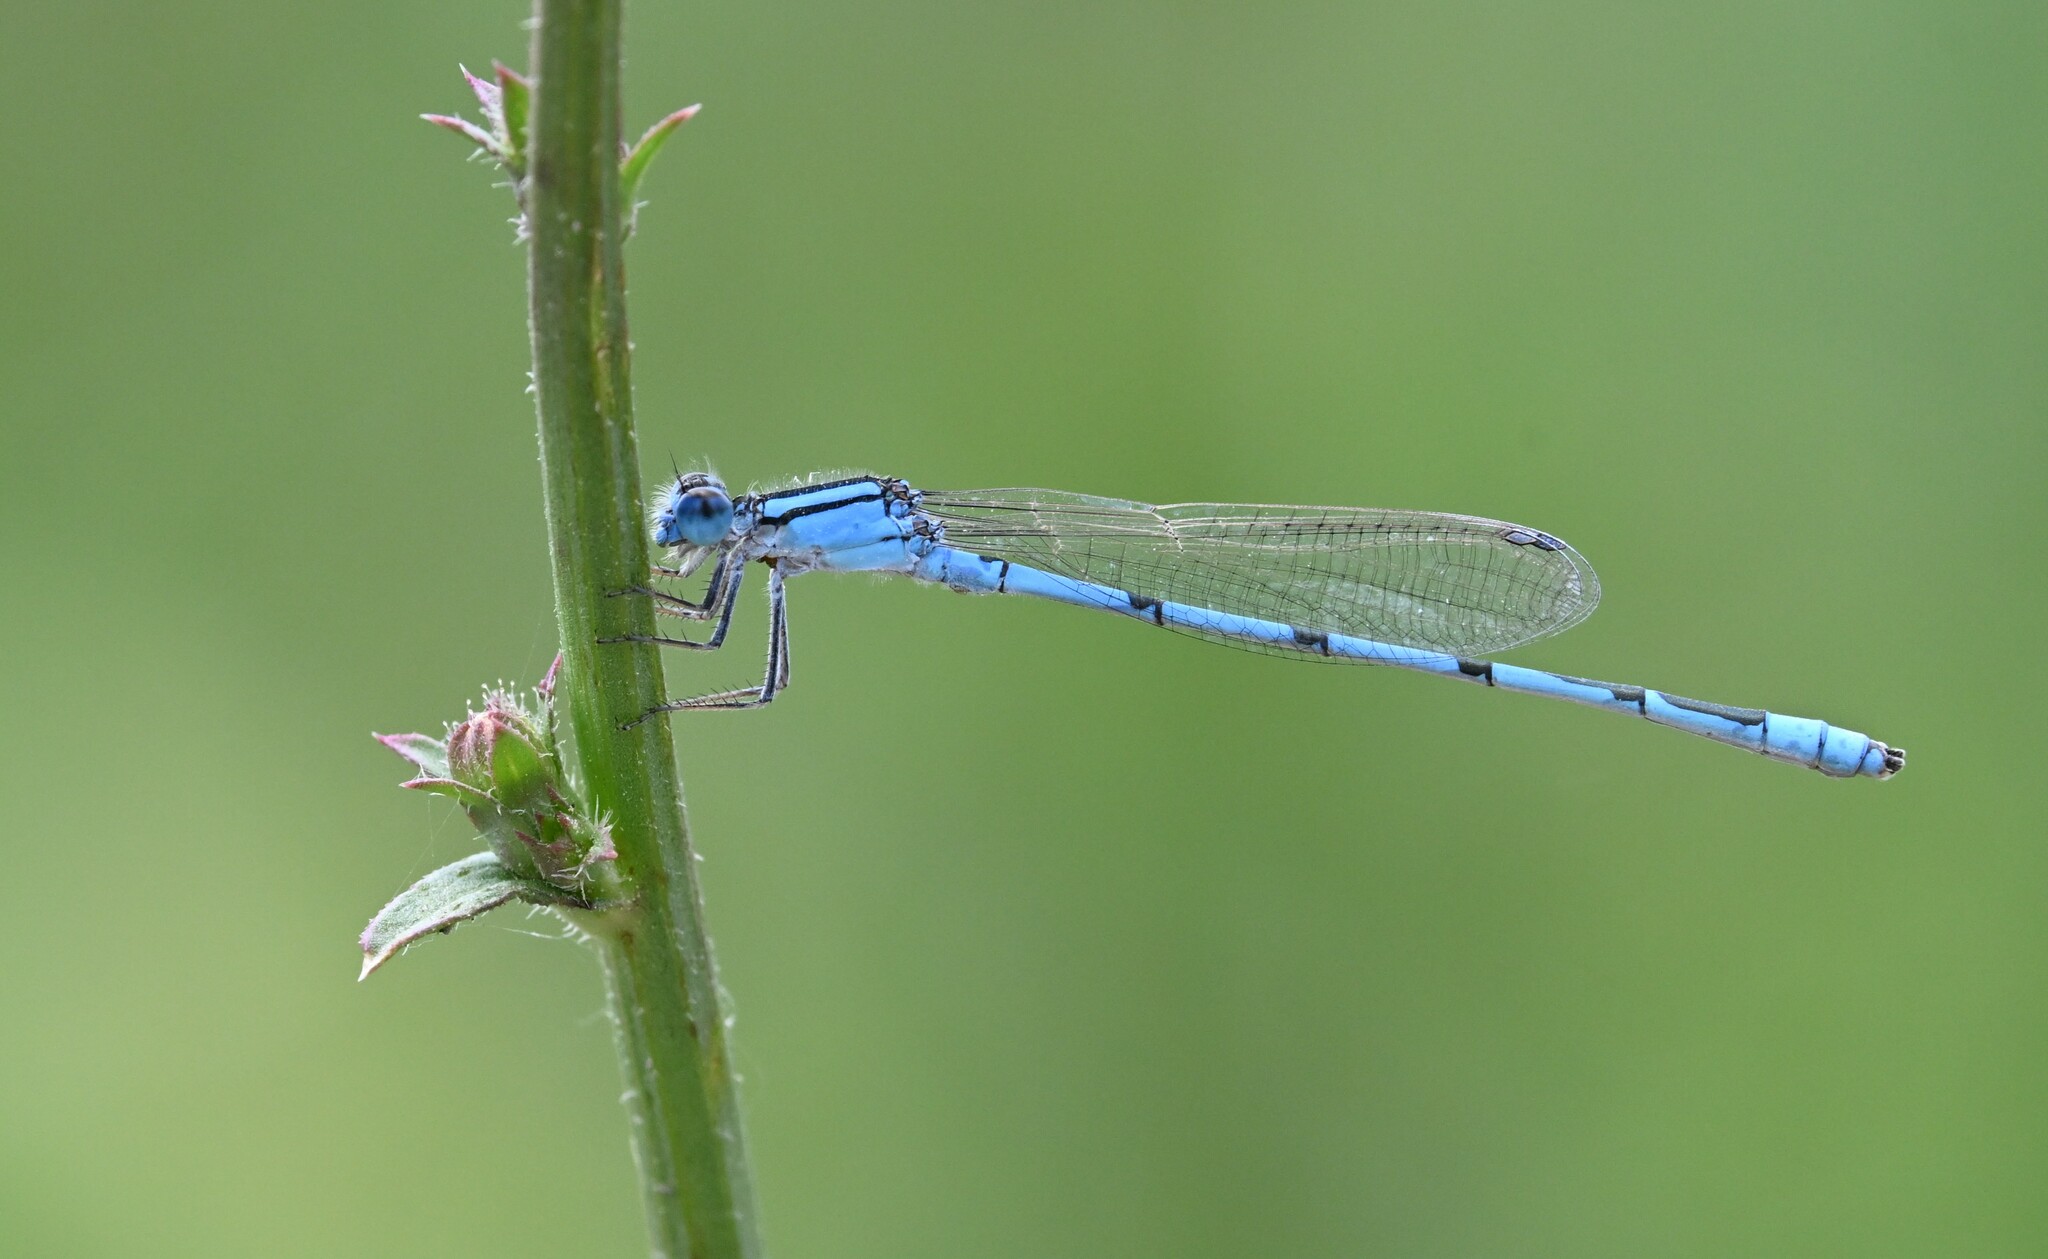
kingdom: Animalia
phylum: Arthropoda
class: Insecta
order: Odonata
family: Coenagrionidae
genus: Enallagma
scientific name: Enallagma civile
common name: Damselfly
